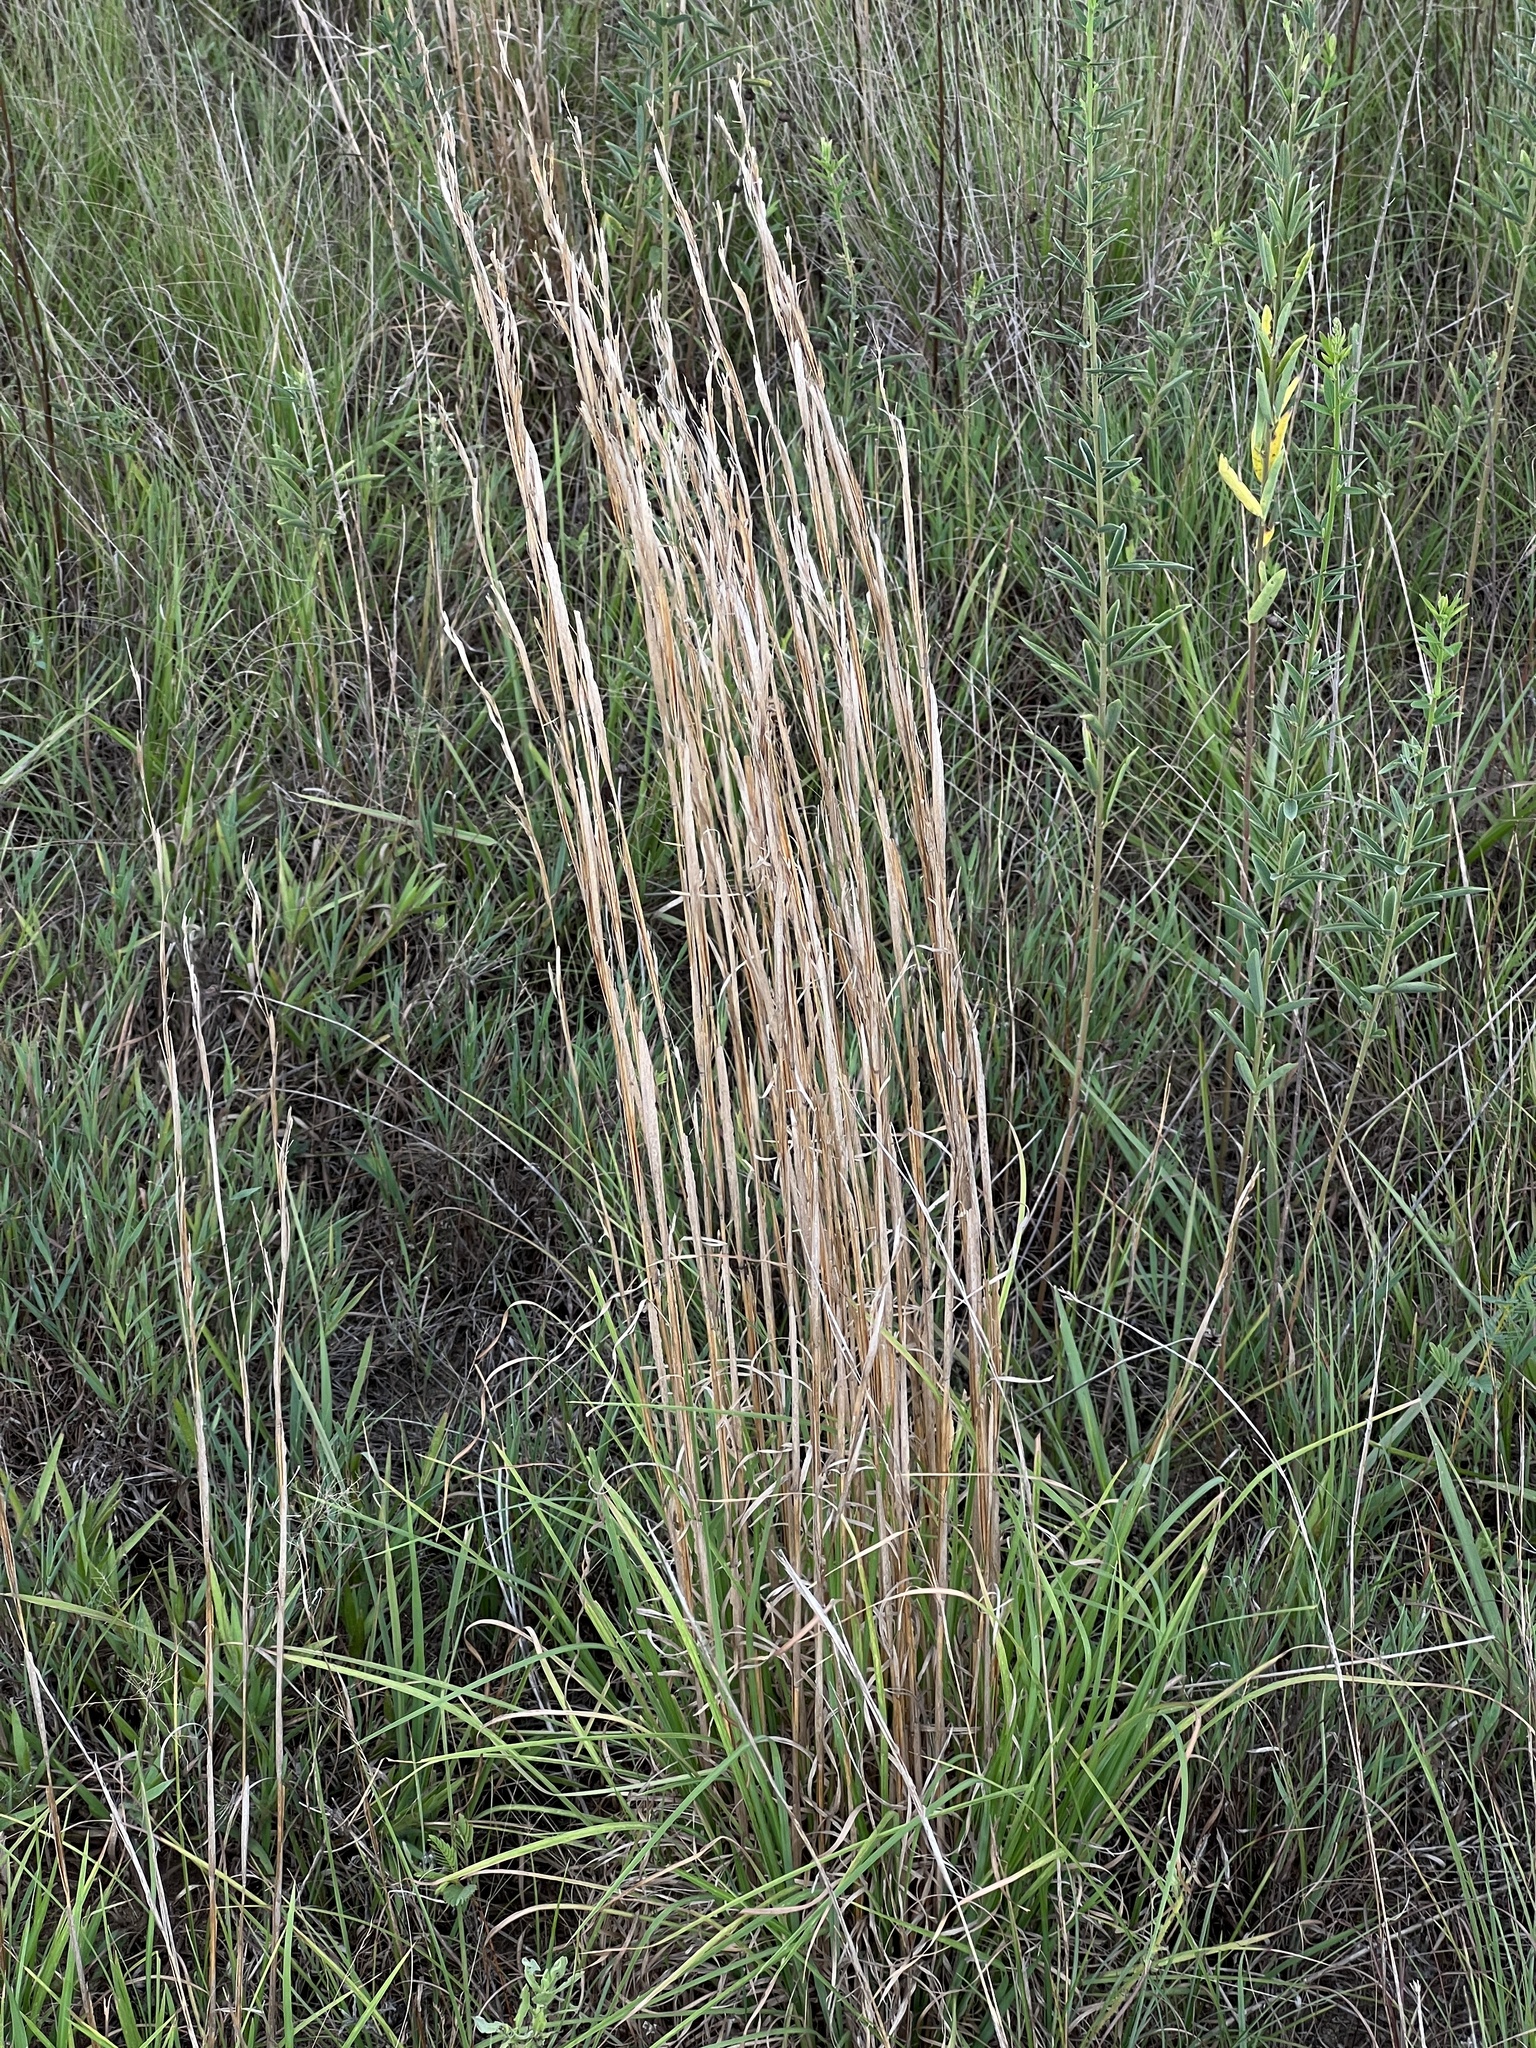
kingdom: Plantae
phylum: Tracheophyta
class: Liliopsida
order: Poales
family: Poaceae
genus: Andropogon
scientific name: Andropogon virginicus
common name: Broomsedge bluestem
